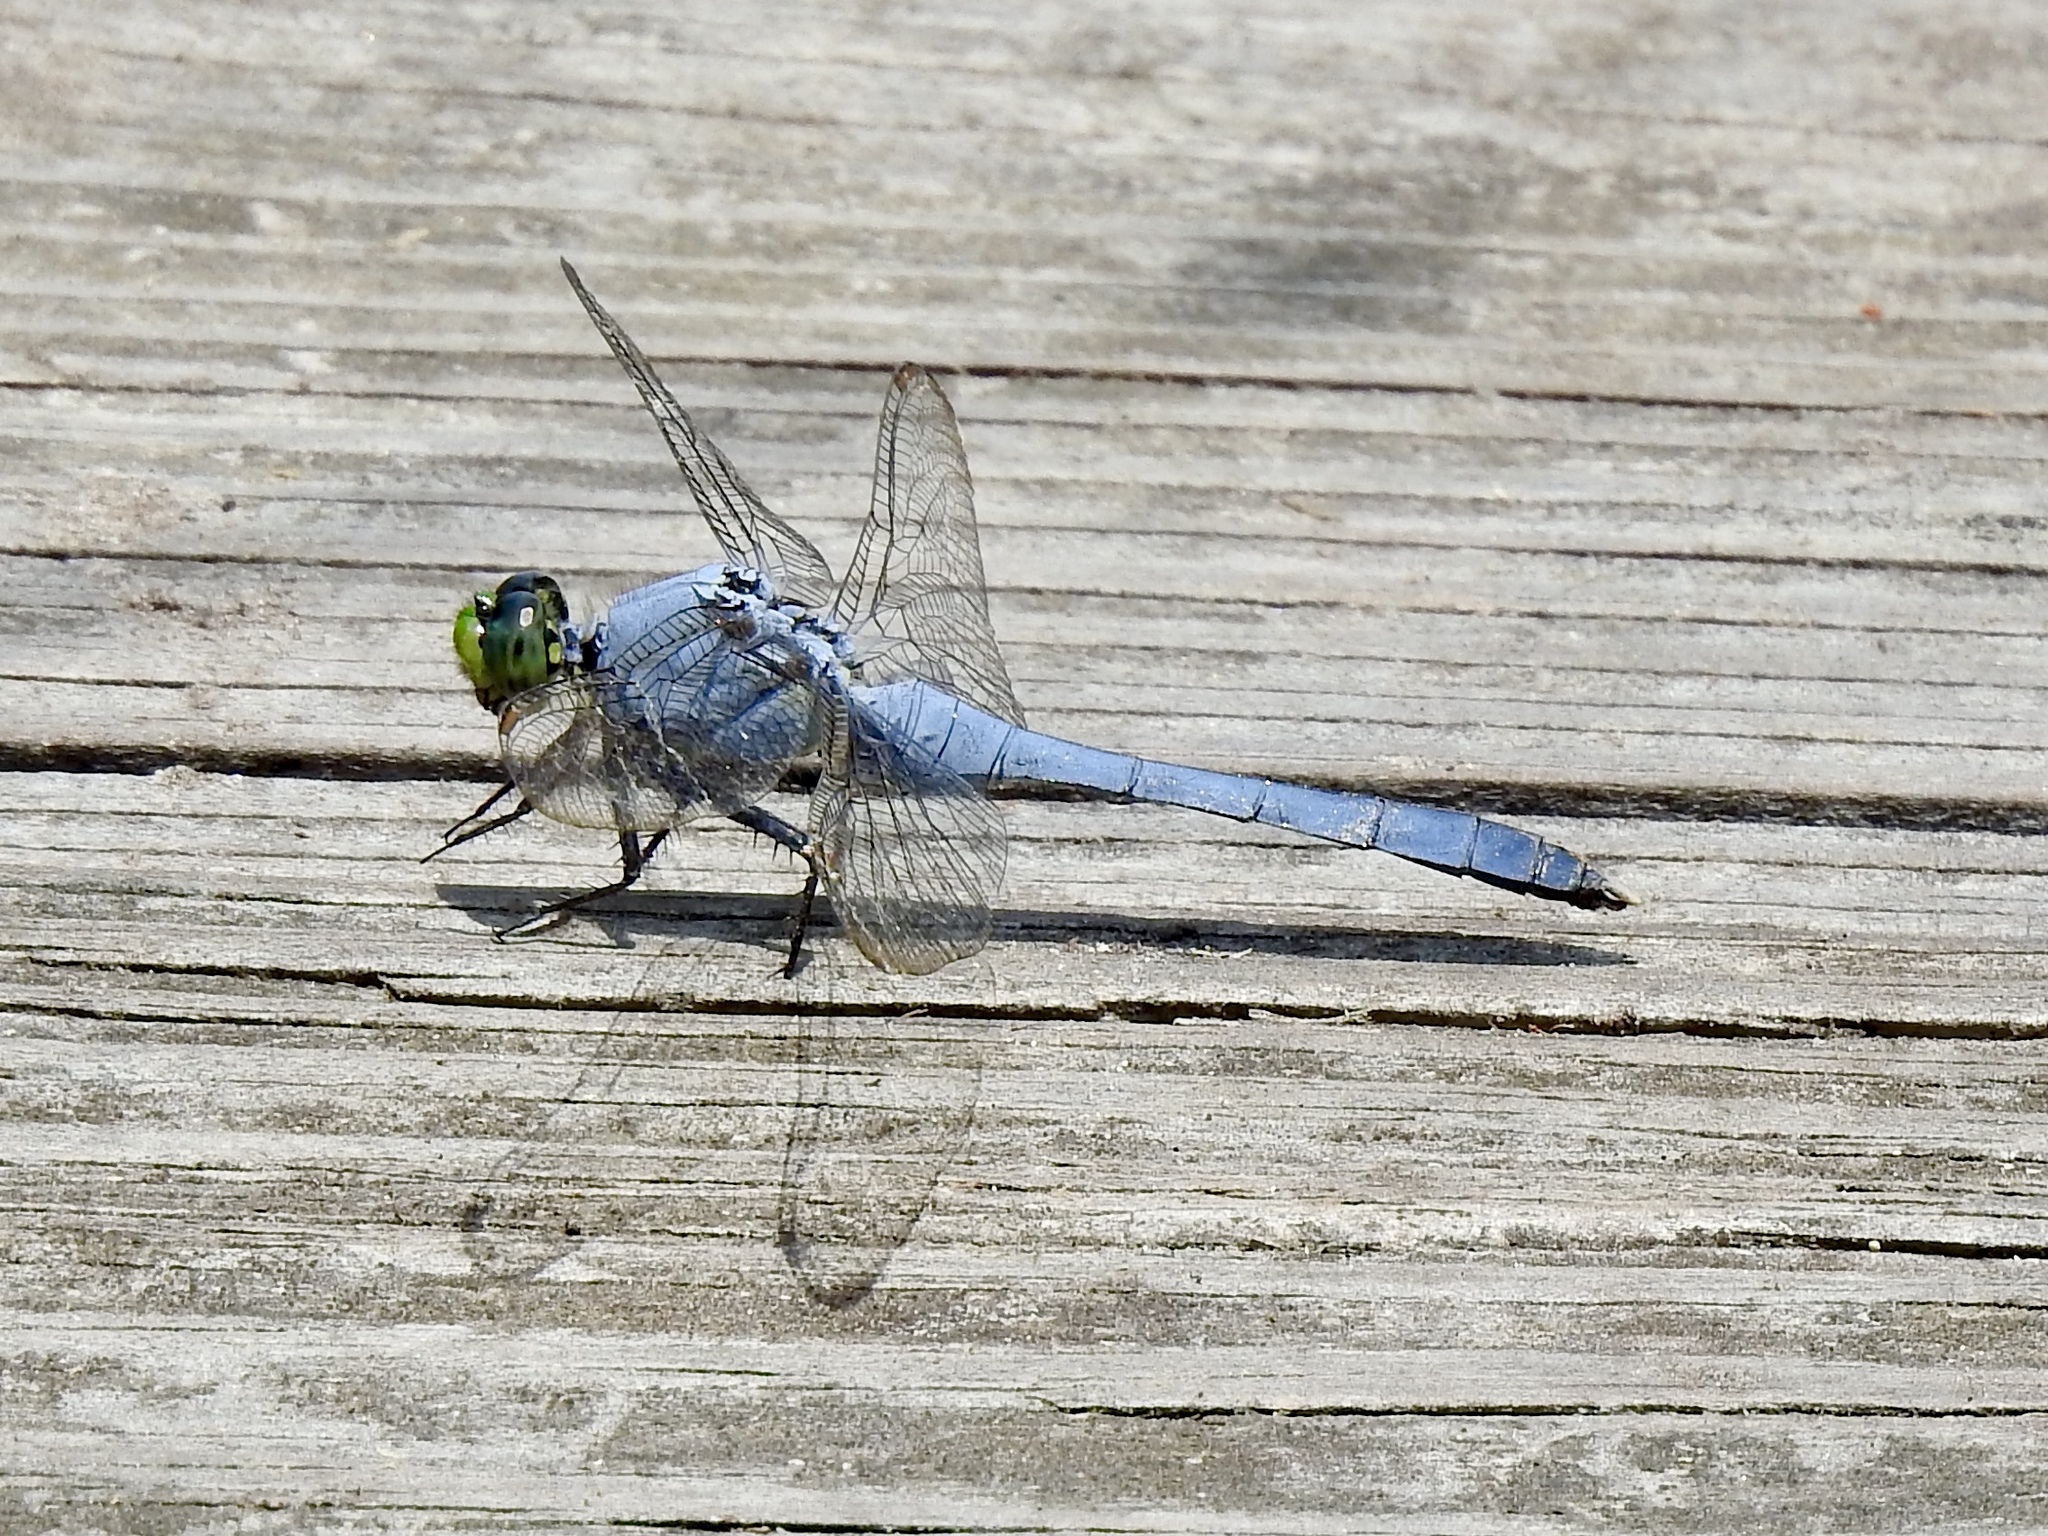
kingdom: Animalia
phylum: Arthropoda
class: Insecta
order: Odonata
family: Libellulidae
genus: Erythemis
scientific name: Erythemis simplicicollis
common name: Eastern pondhawk
